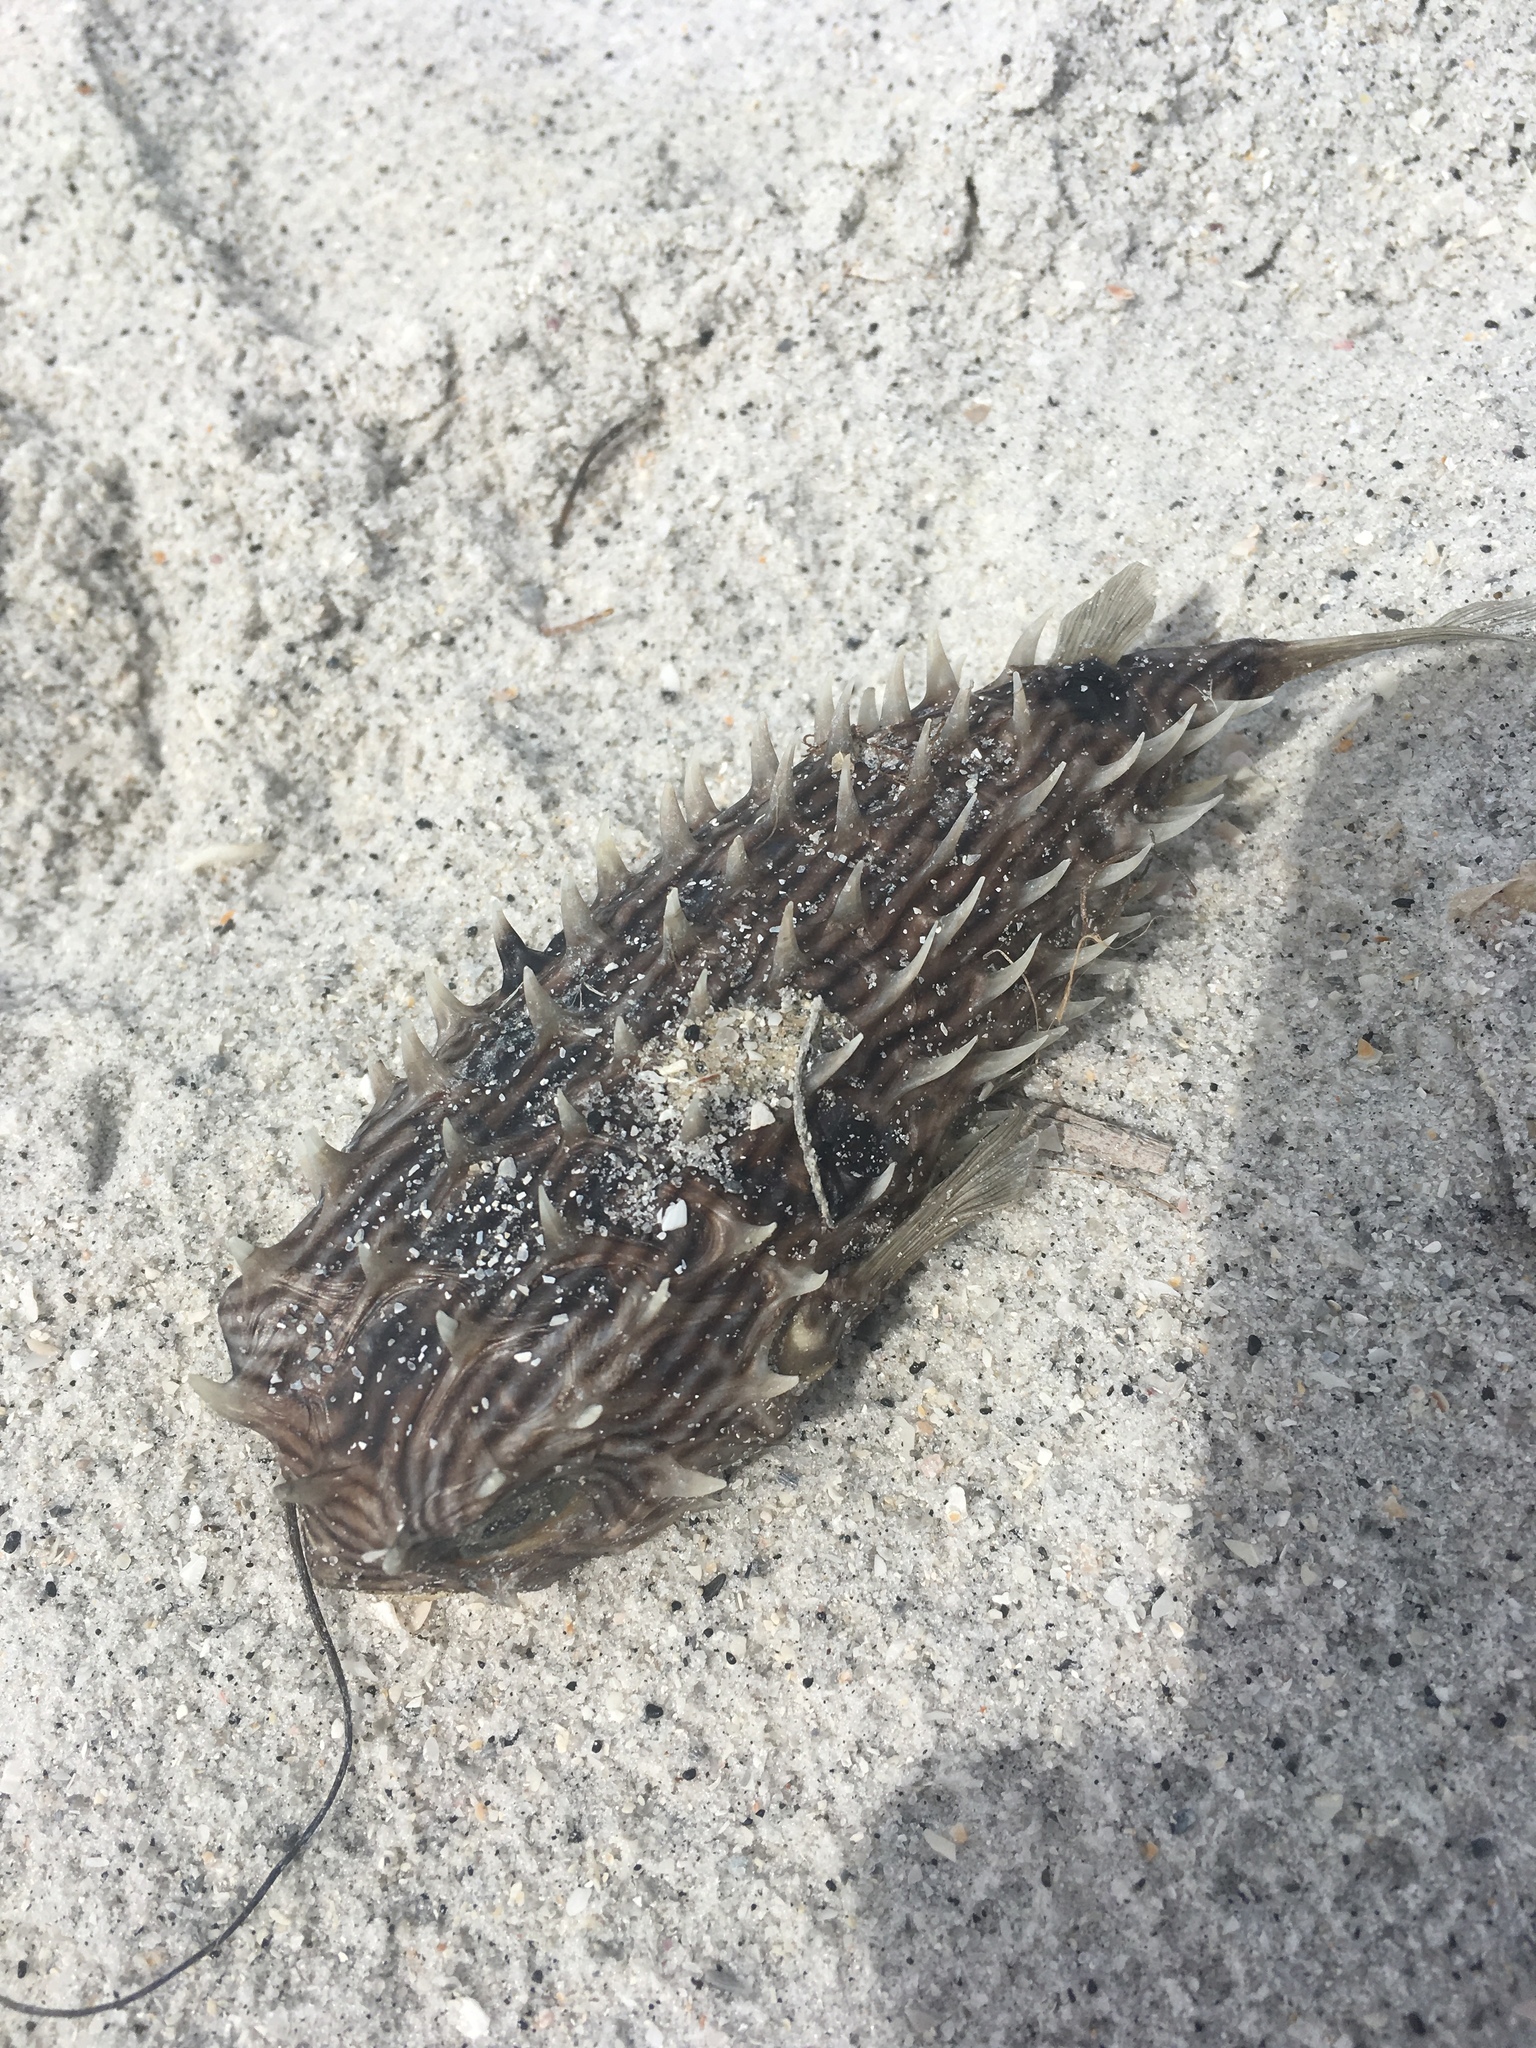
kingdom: Animalia
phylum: Chordata
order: Tetraodontiformes
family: Diodontidae
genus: Chilomycterus
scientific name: Chilomycterus schoepfii
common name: Striped burrfish
